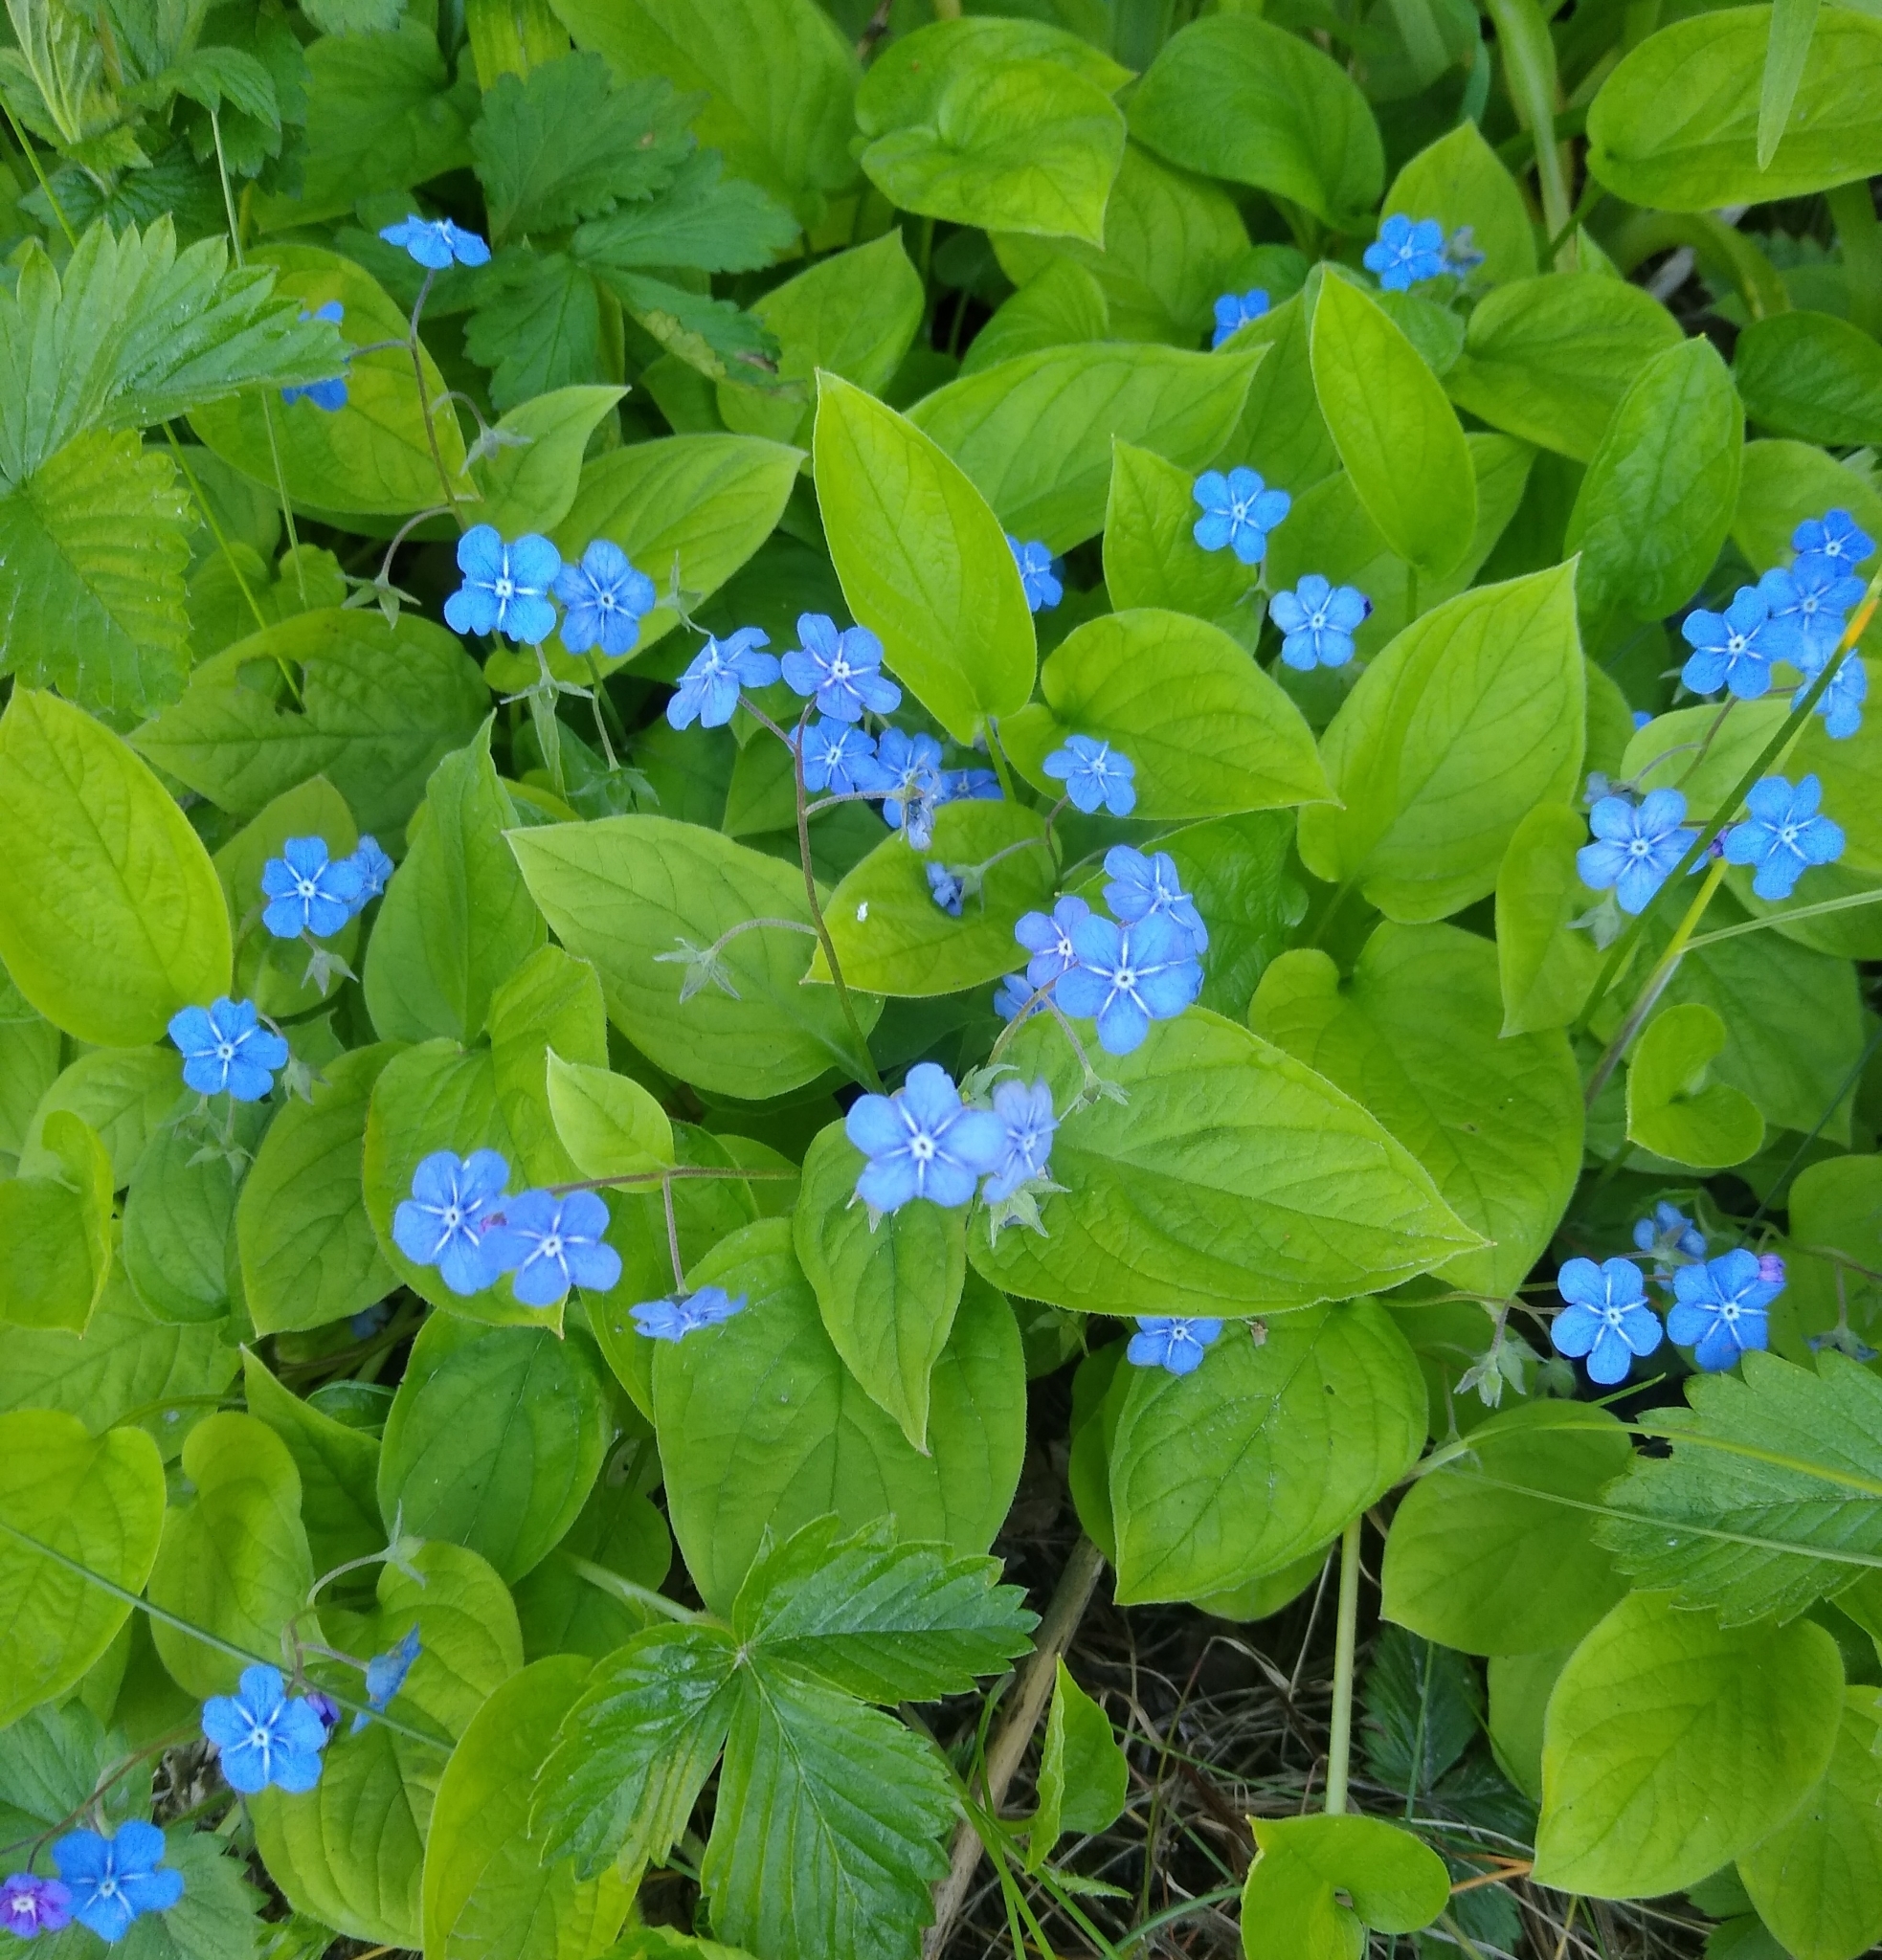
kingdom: Plantae
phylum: Tracheophyta
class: Magnoliopsida
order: Boraginales
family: Boraginaceae
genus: Omphalodes
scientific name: Omphalodes verna
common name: Blue-eyed-mary
